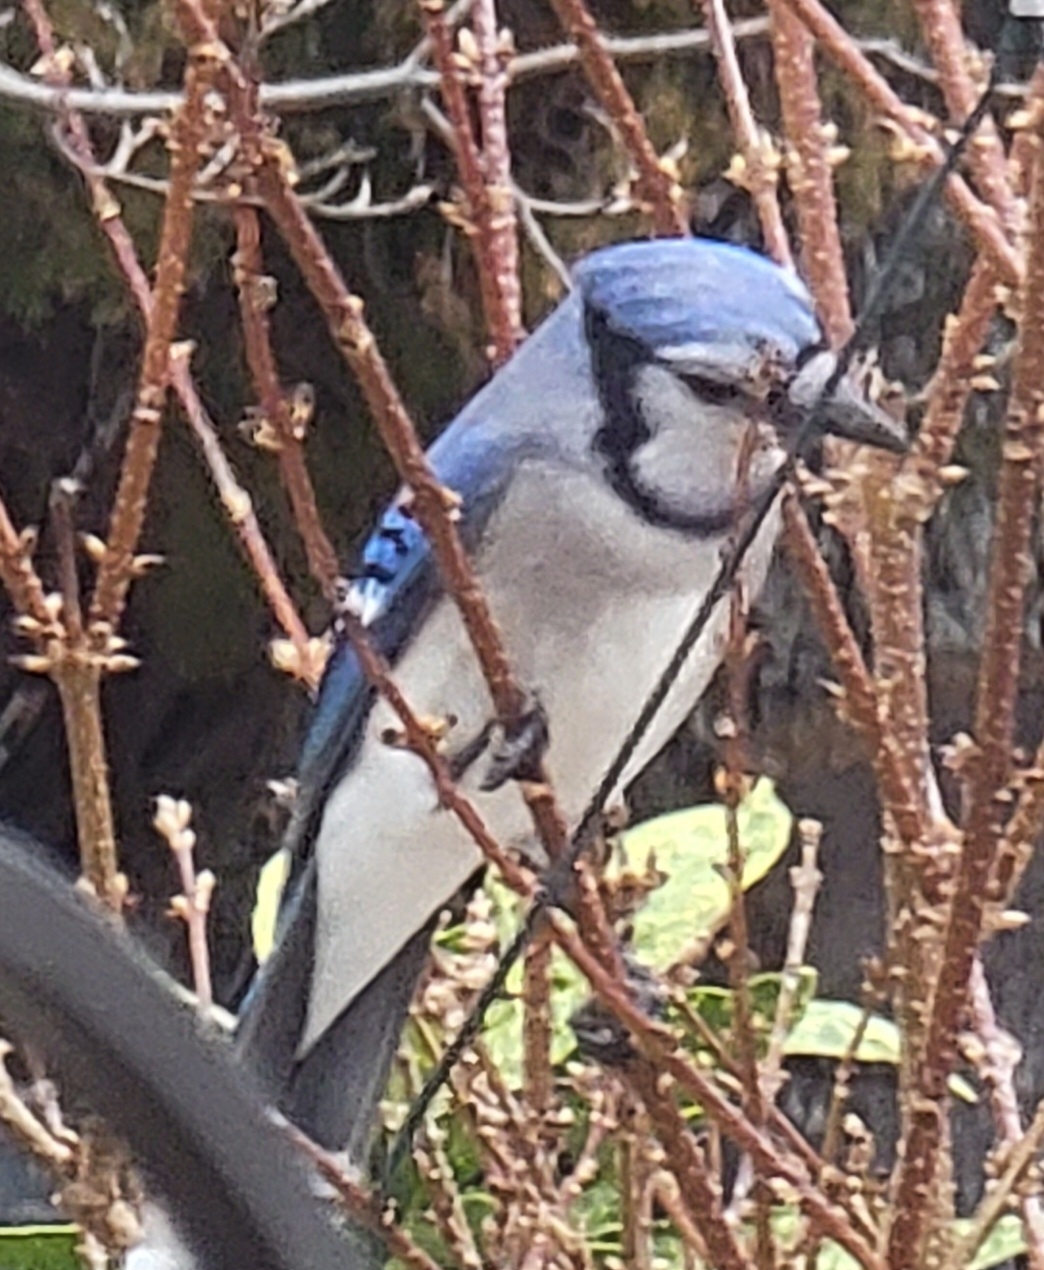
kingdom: Animalia
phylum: Chordata
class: Aves
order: Passeriformes
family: Corvidae
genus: Cyanocitta
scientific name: Cyanocitta cristata
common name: Blue jay
